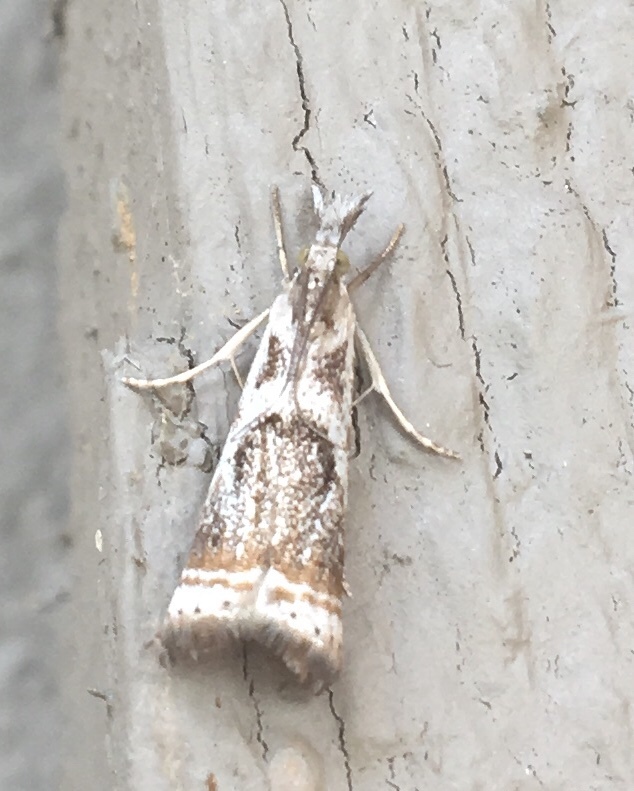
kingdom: Animalia
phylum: Arthropoda
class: Insecta
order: Lepidoptera
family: Crambidae
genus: Microcrambus
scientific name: Microcrambus elegans
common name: Elegant grass-veneer
